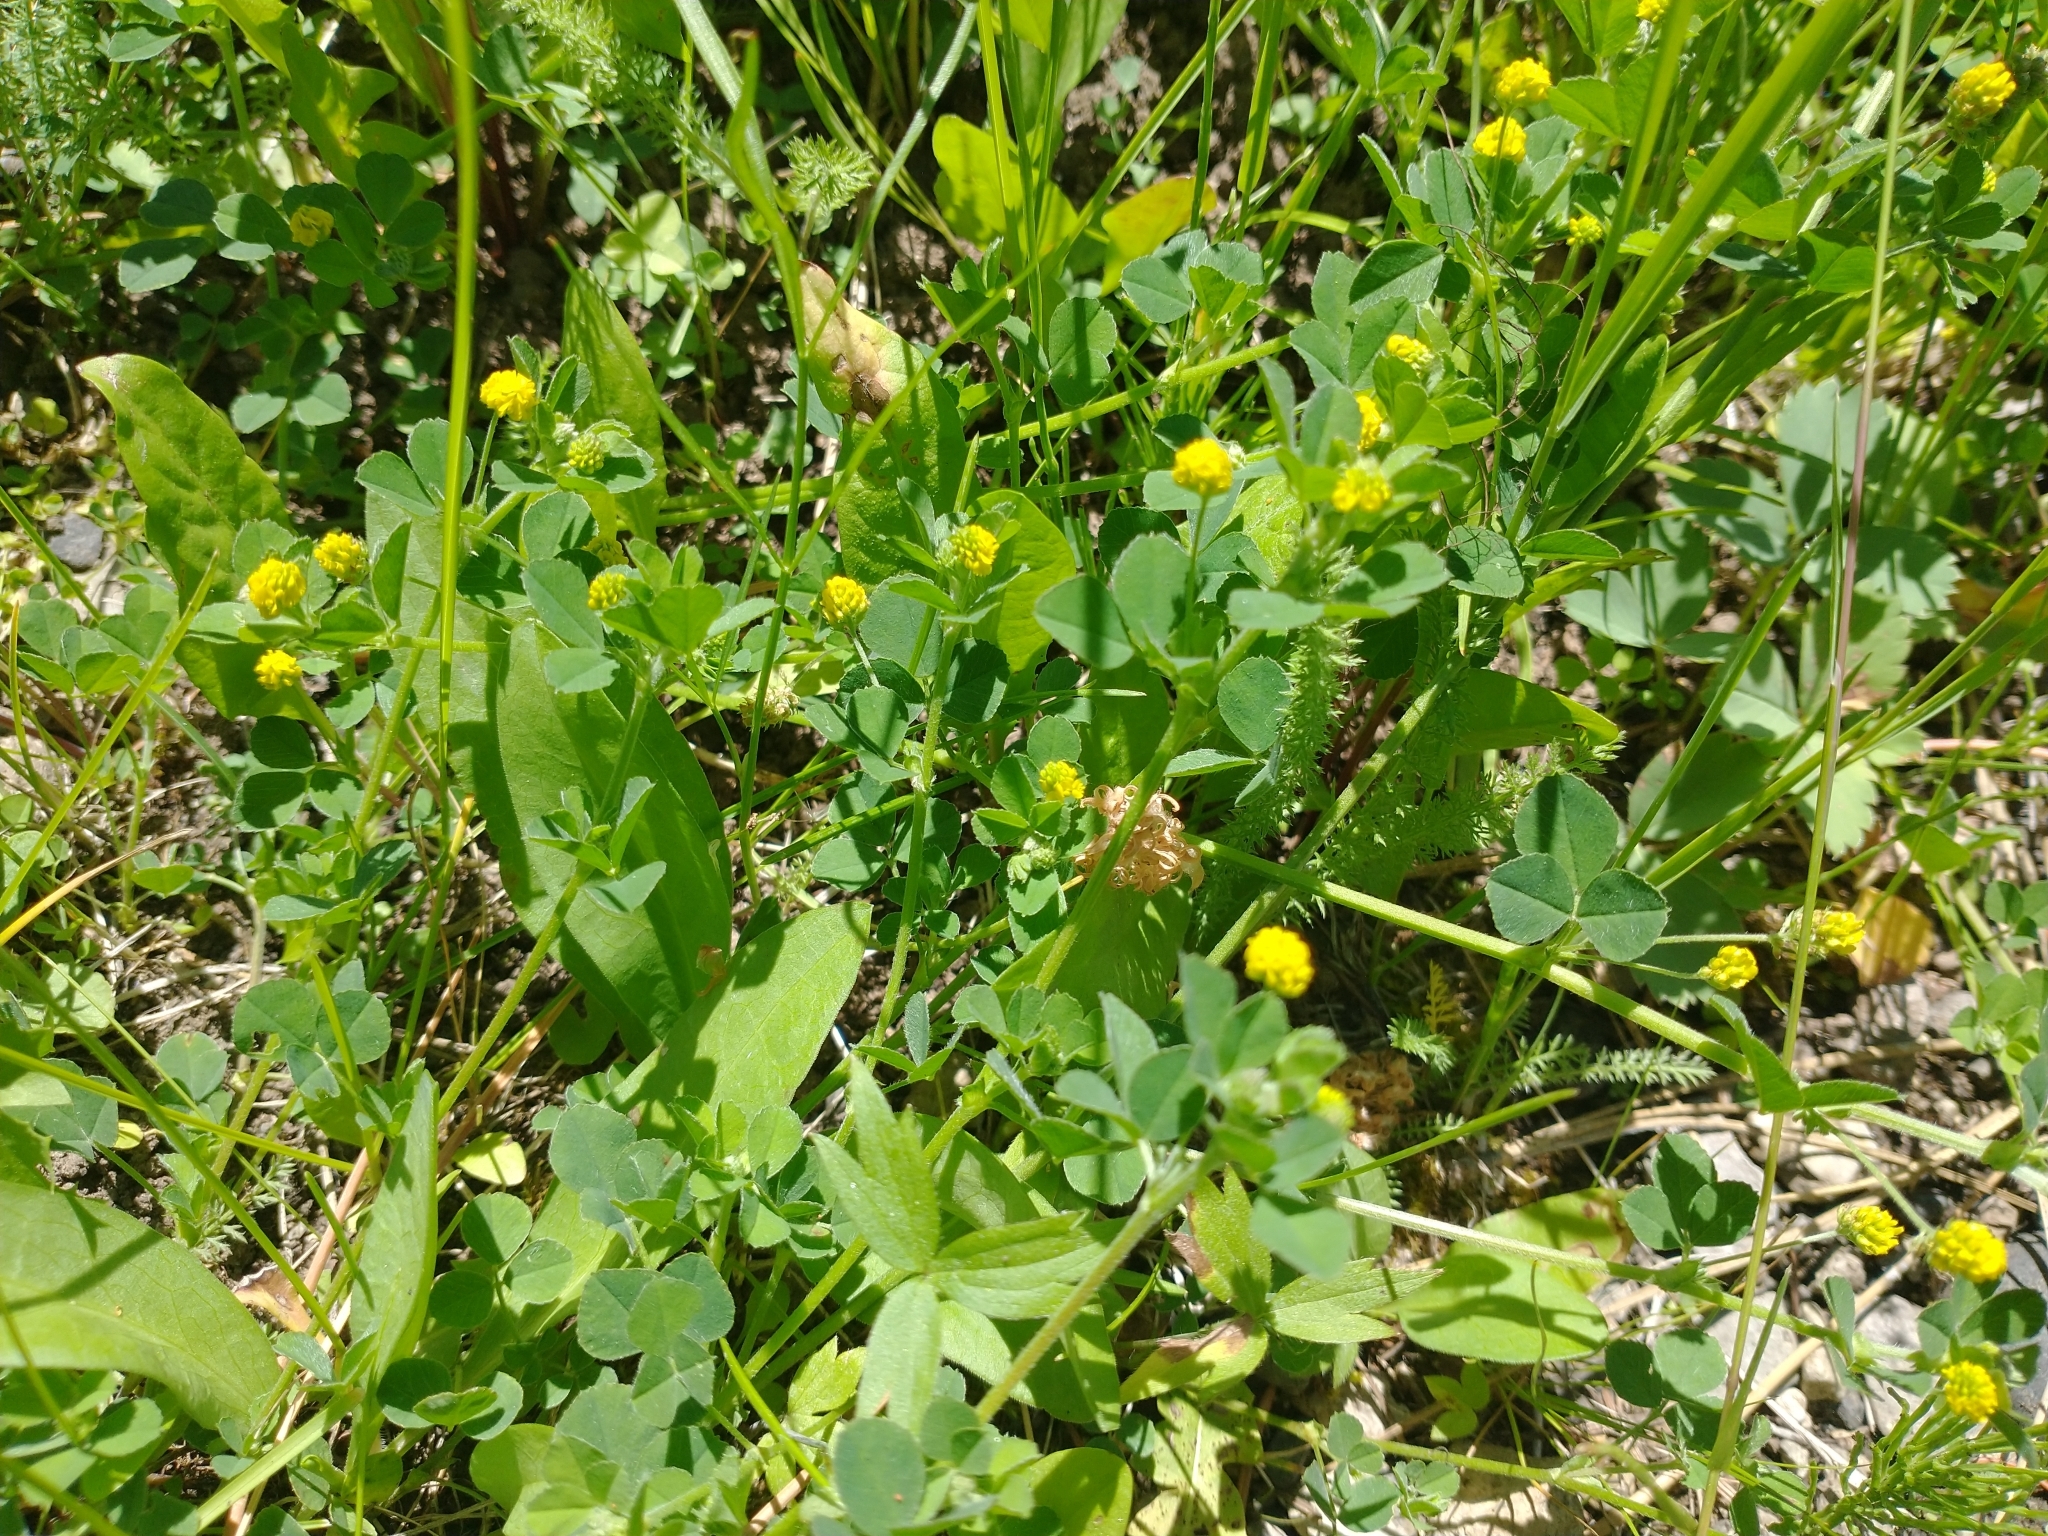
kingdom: Plantae
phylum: Tracheophyta
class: Magnoliopsida
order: Fabales
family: Fabaceae
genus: Medicago
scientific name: Medicago lupulina
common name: Black medick
